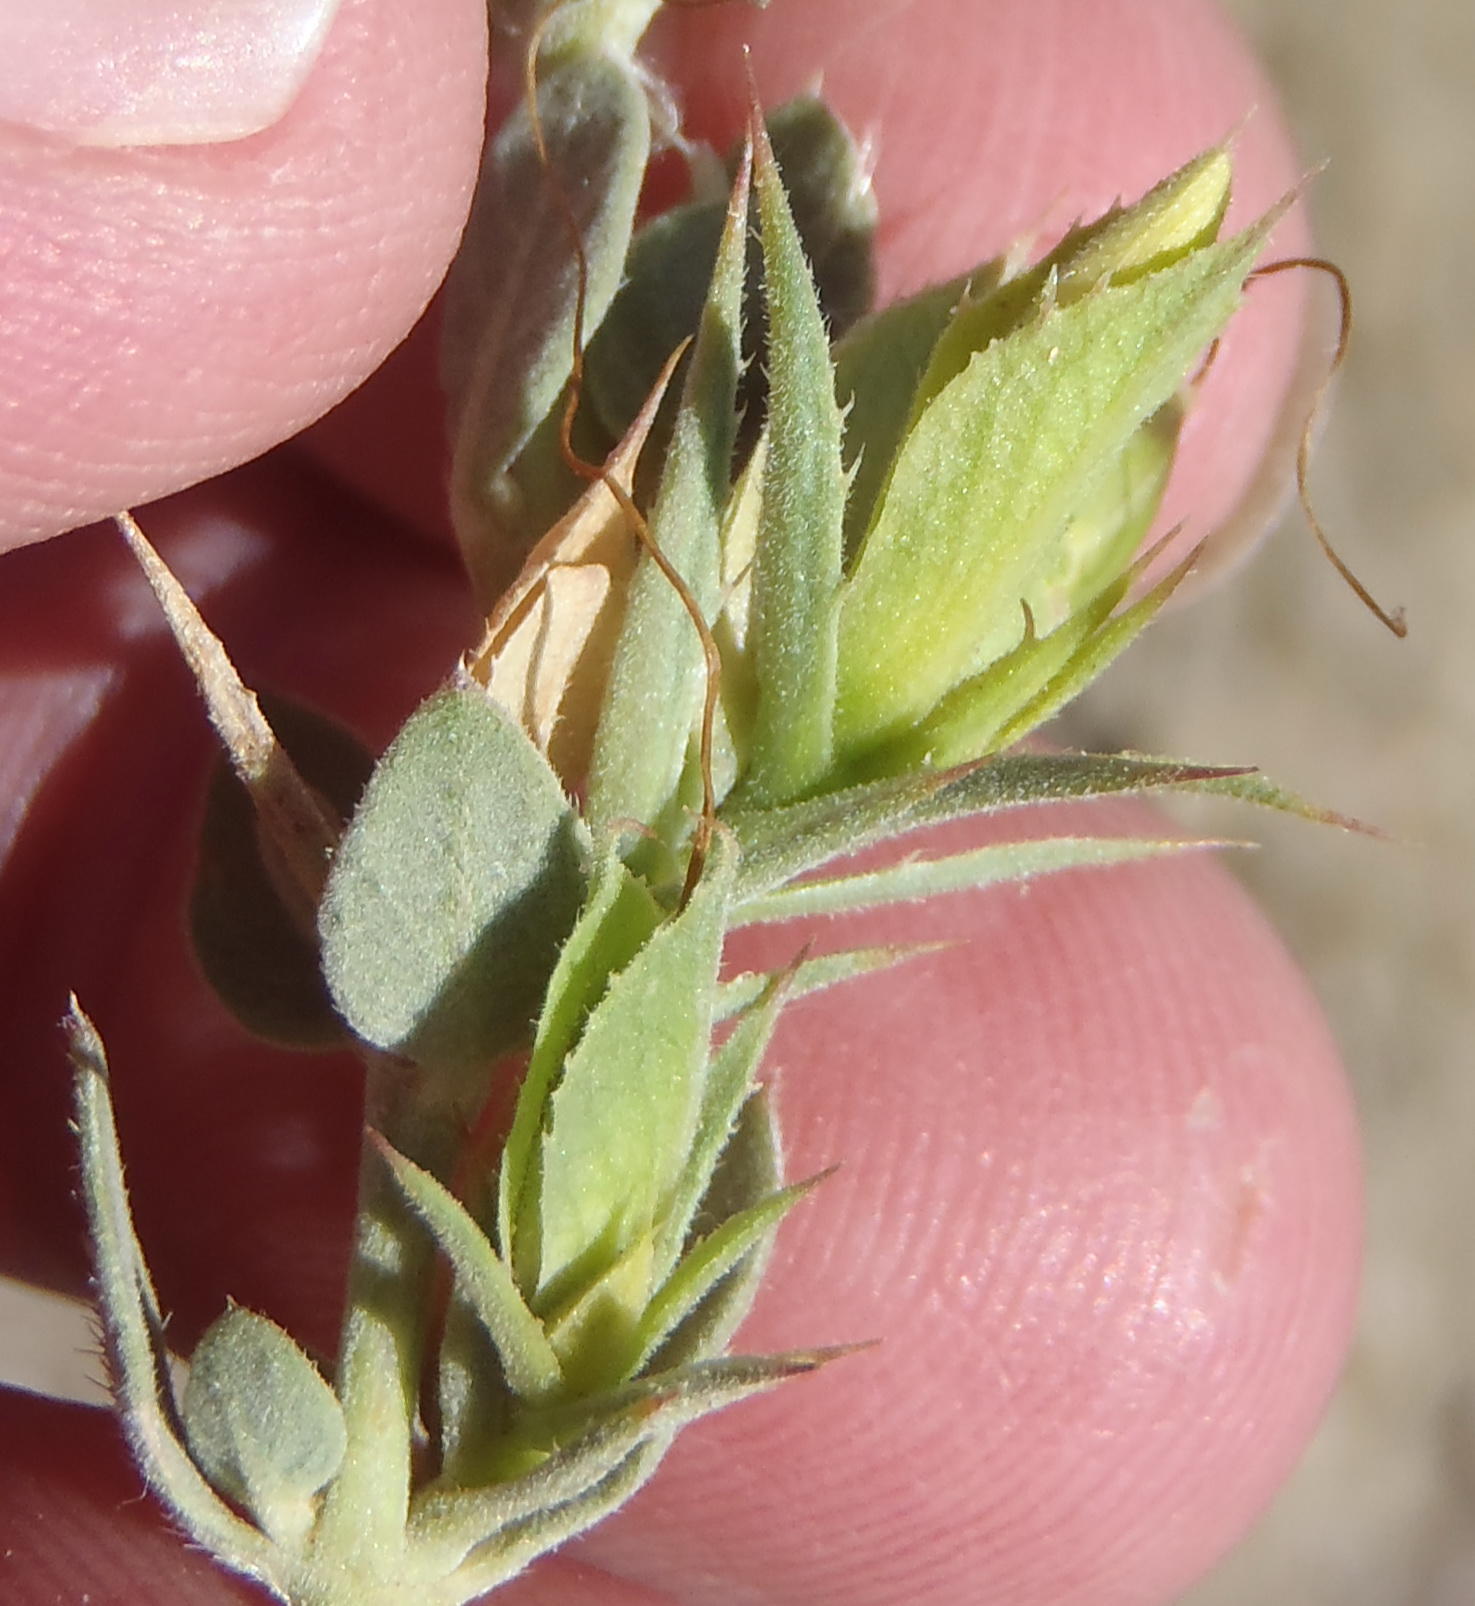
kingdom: Plantae
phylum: Tracheophyta
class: Magnoliopsida
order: Lamiales
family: Acanthaceae
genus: Barleria
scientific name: Barleria pungens
